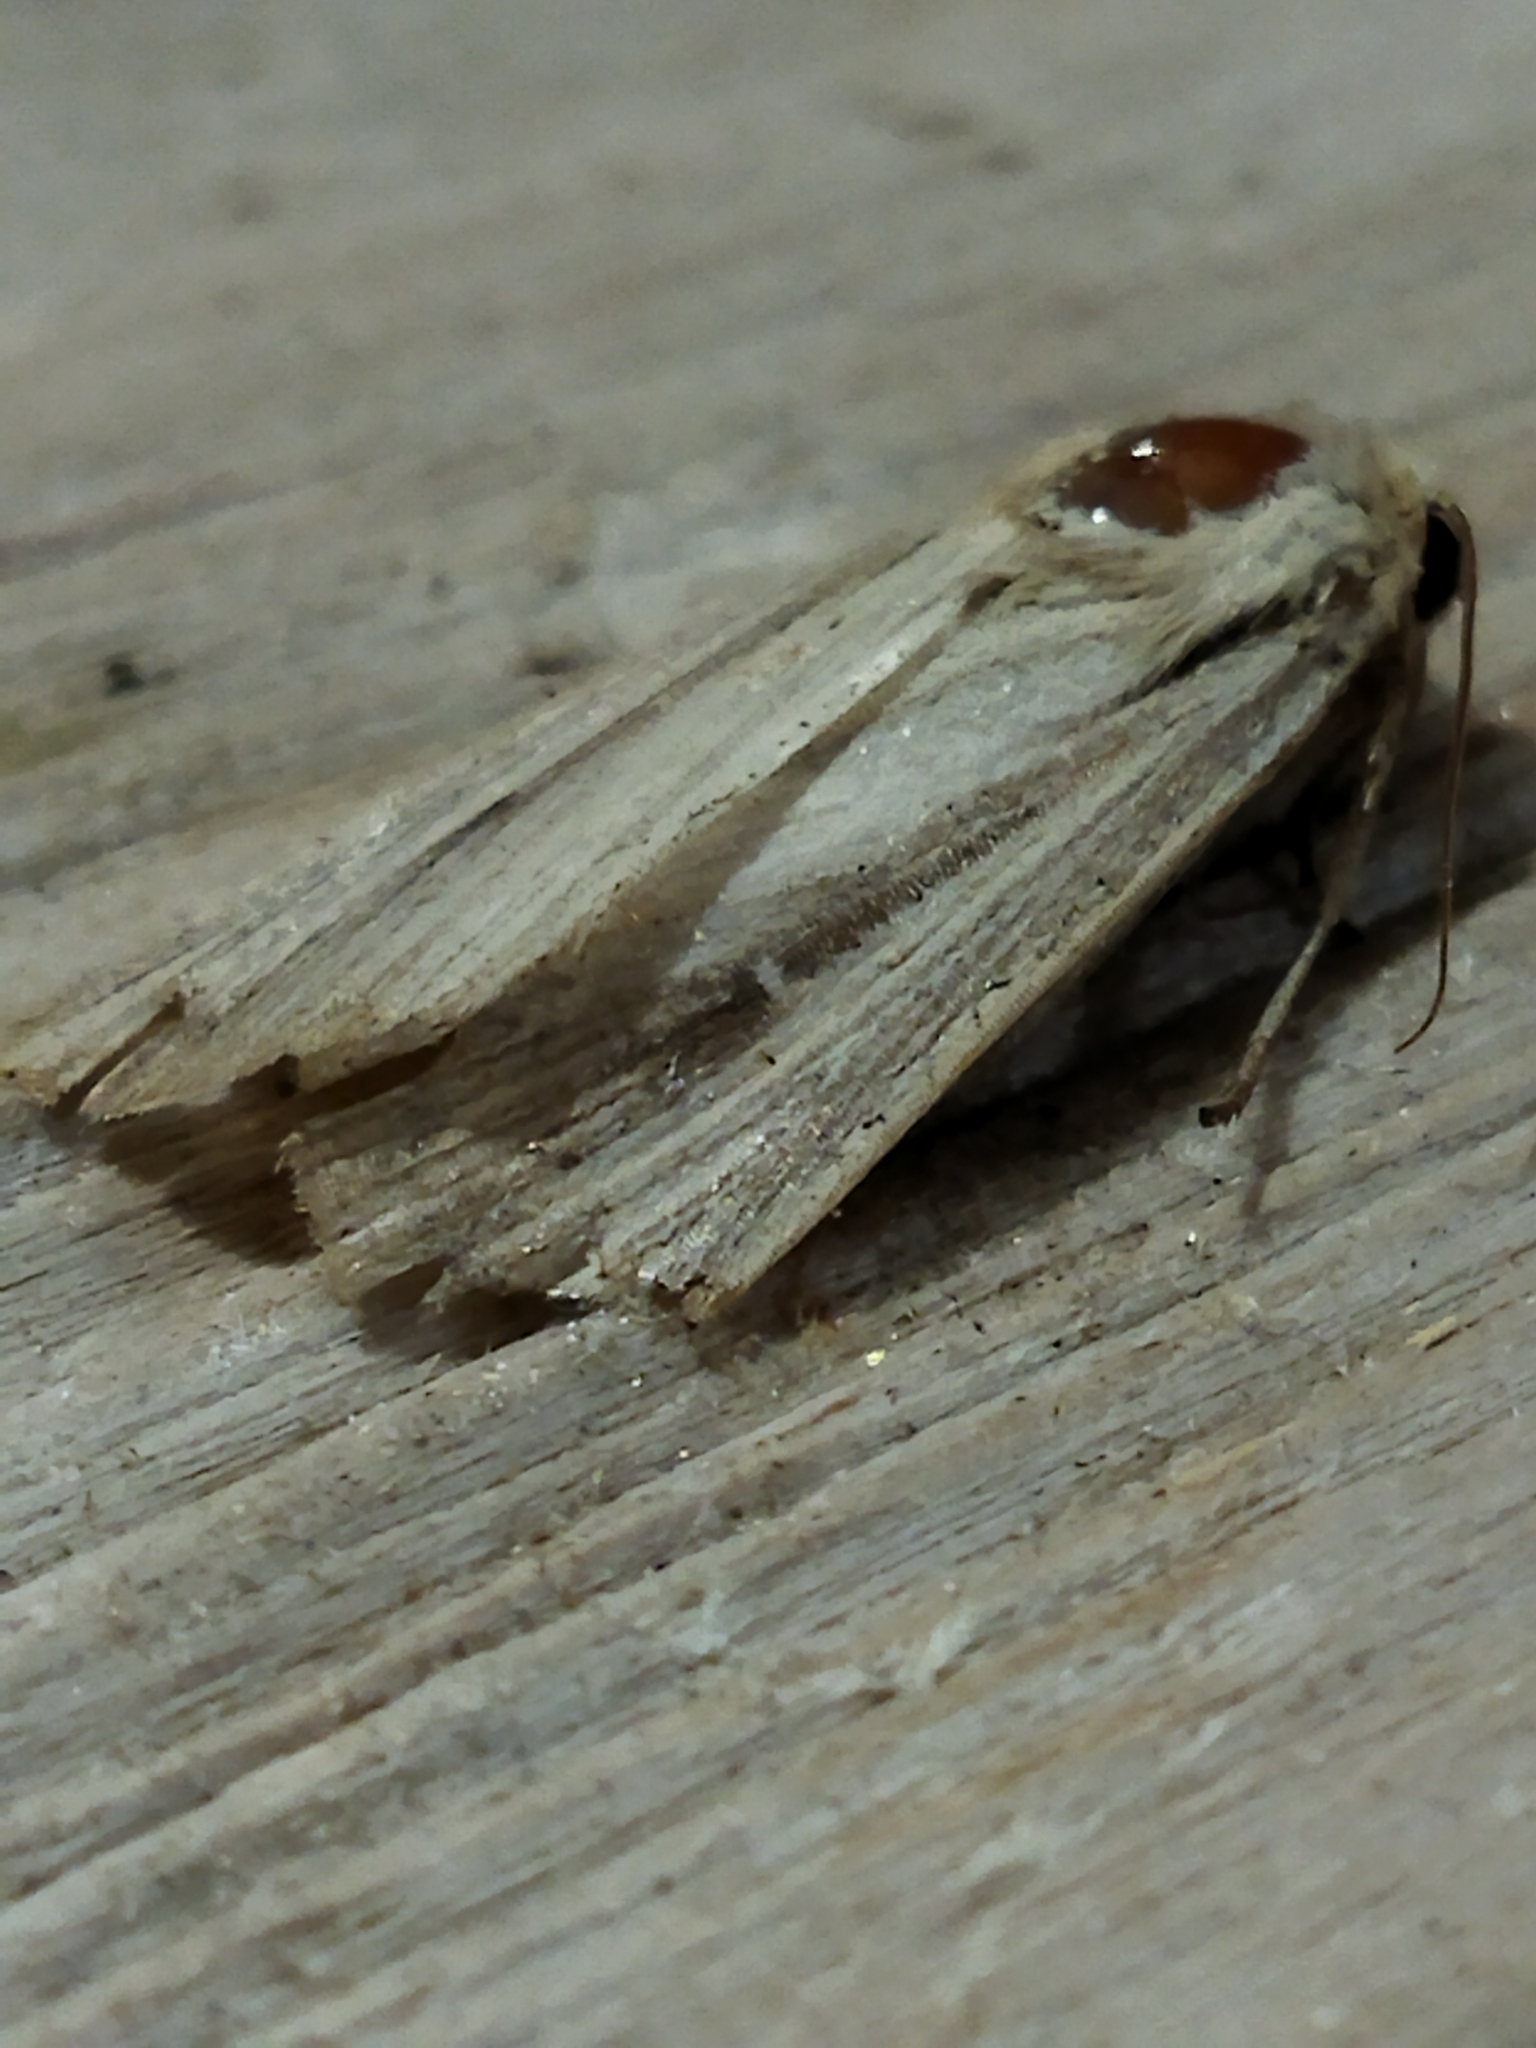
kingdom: Animalia
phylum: Arthropoda
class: Insecta
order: Lepidoptera
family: Noctuidae
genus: Leucania
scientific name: Leucania loreyi
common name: The cosmopolitan
